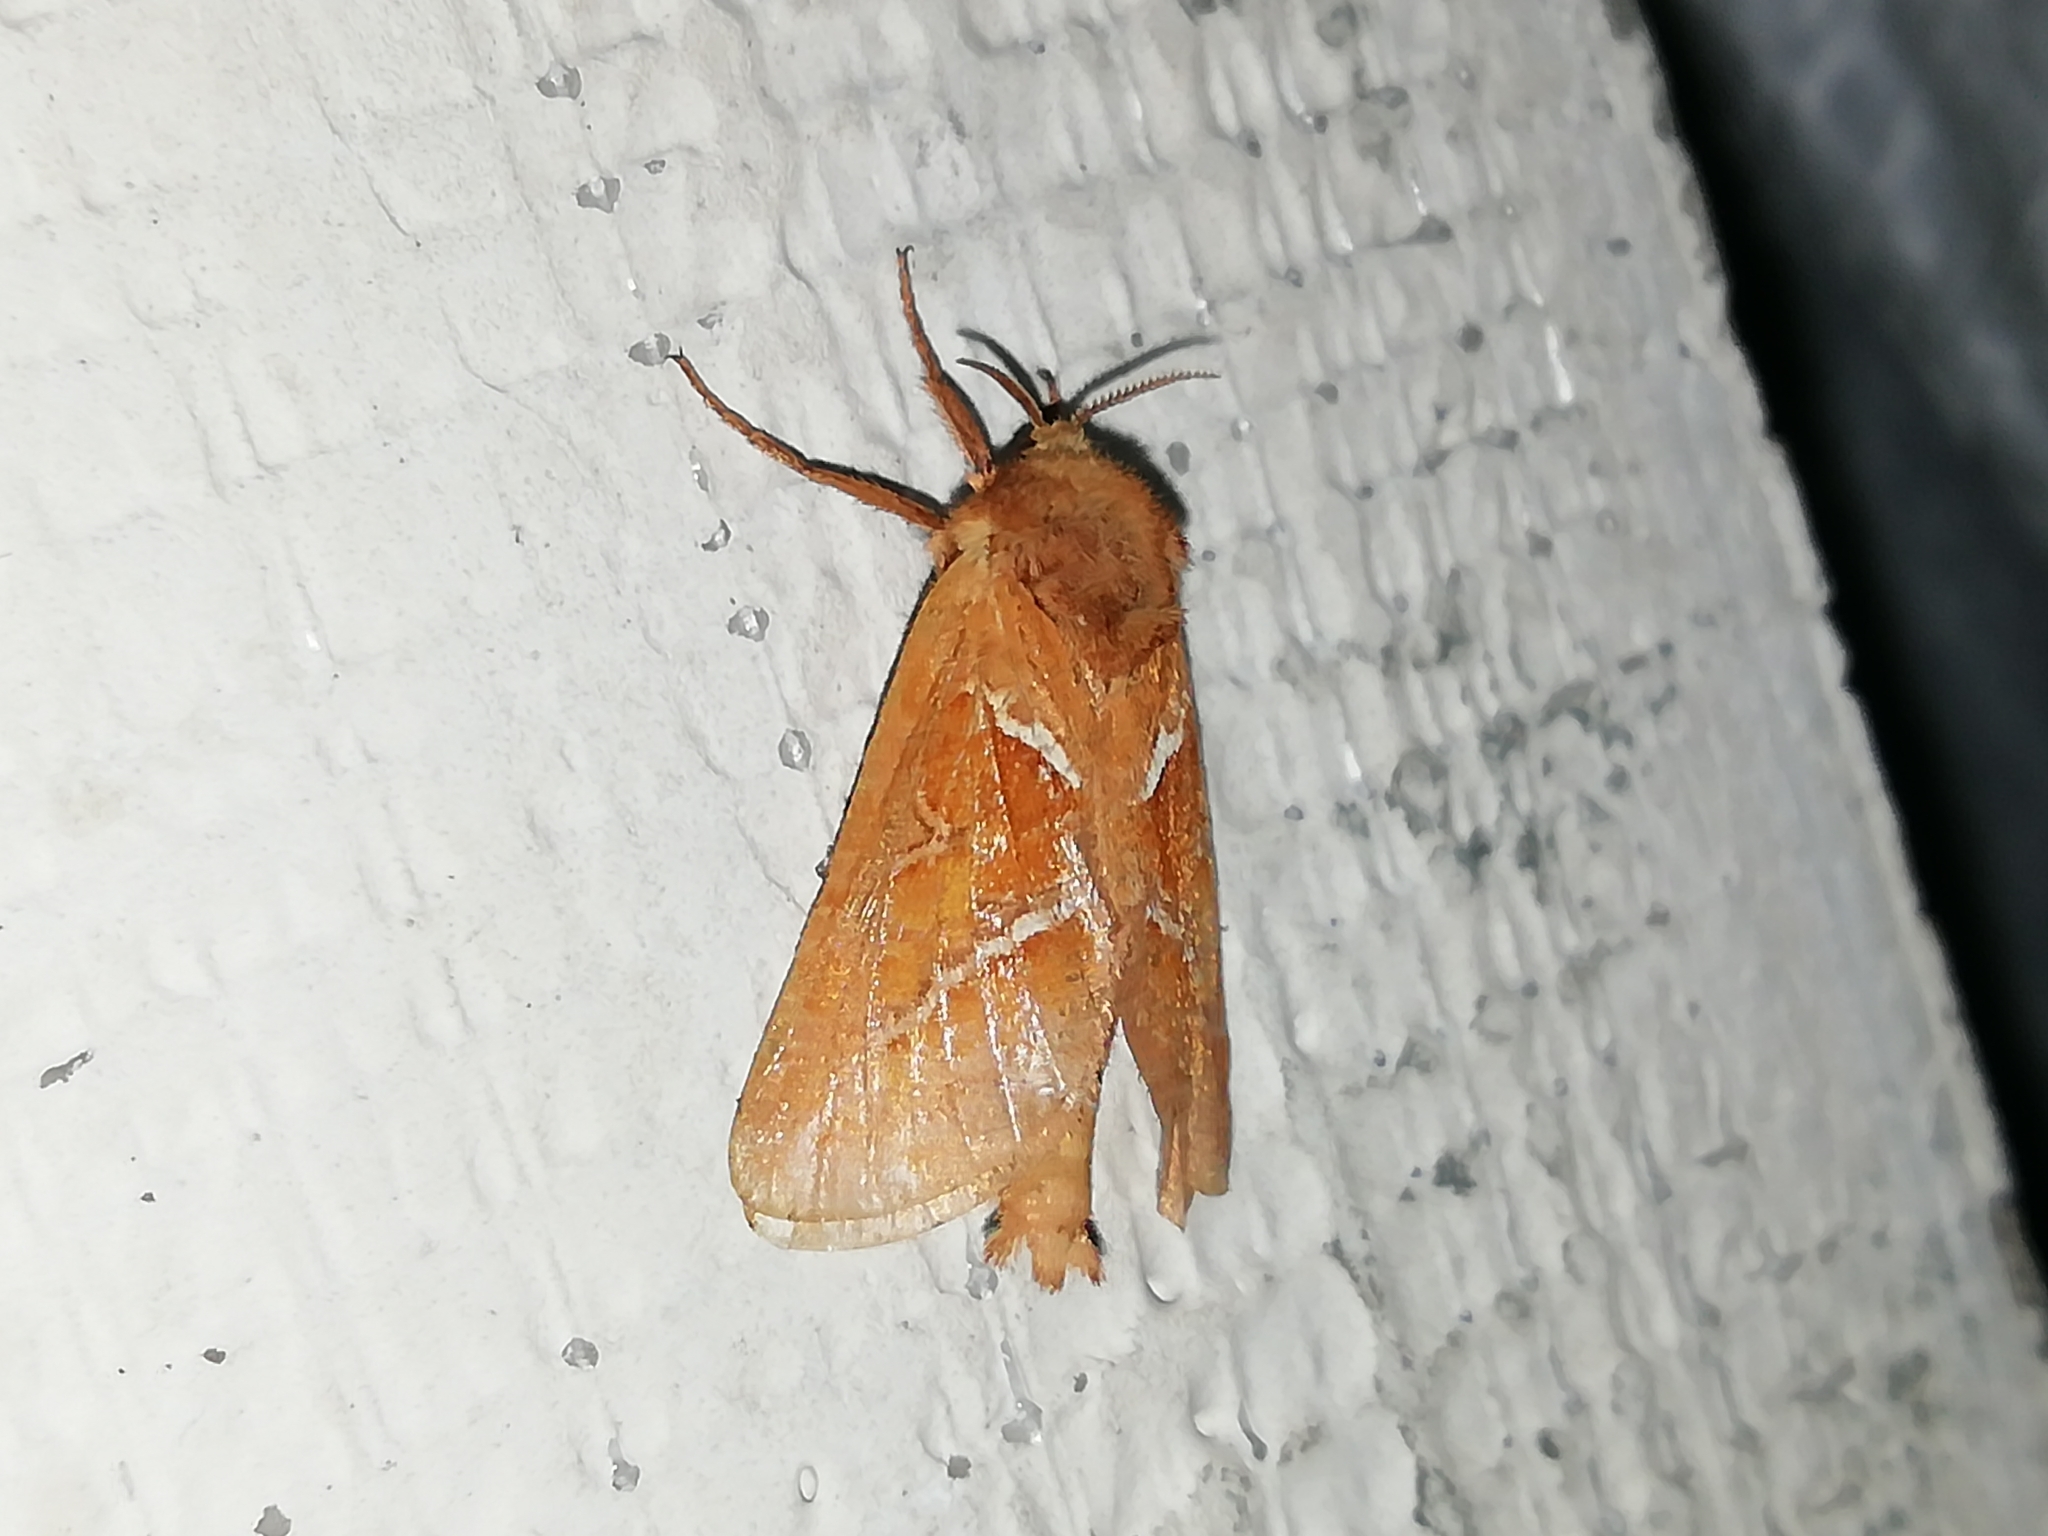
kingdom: Animalia
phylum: Arthropoda
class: Insecta
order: Lepidoptera
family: Hepialidae
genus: Triodia
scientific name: Triodia sylvina
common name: Orange swift
